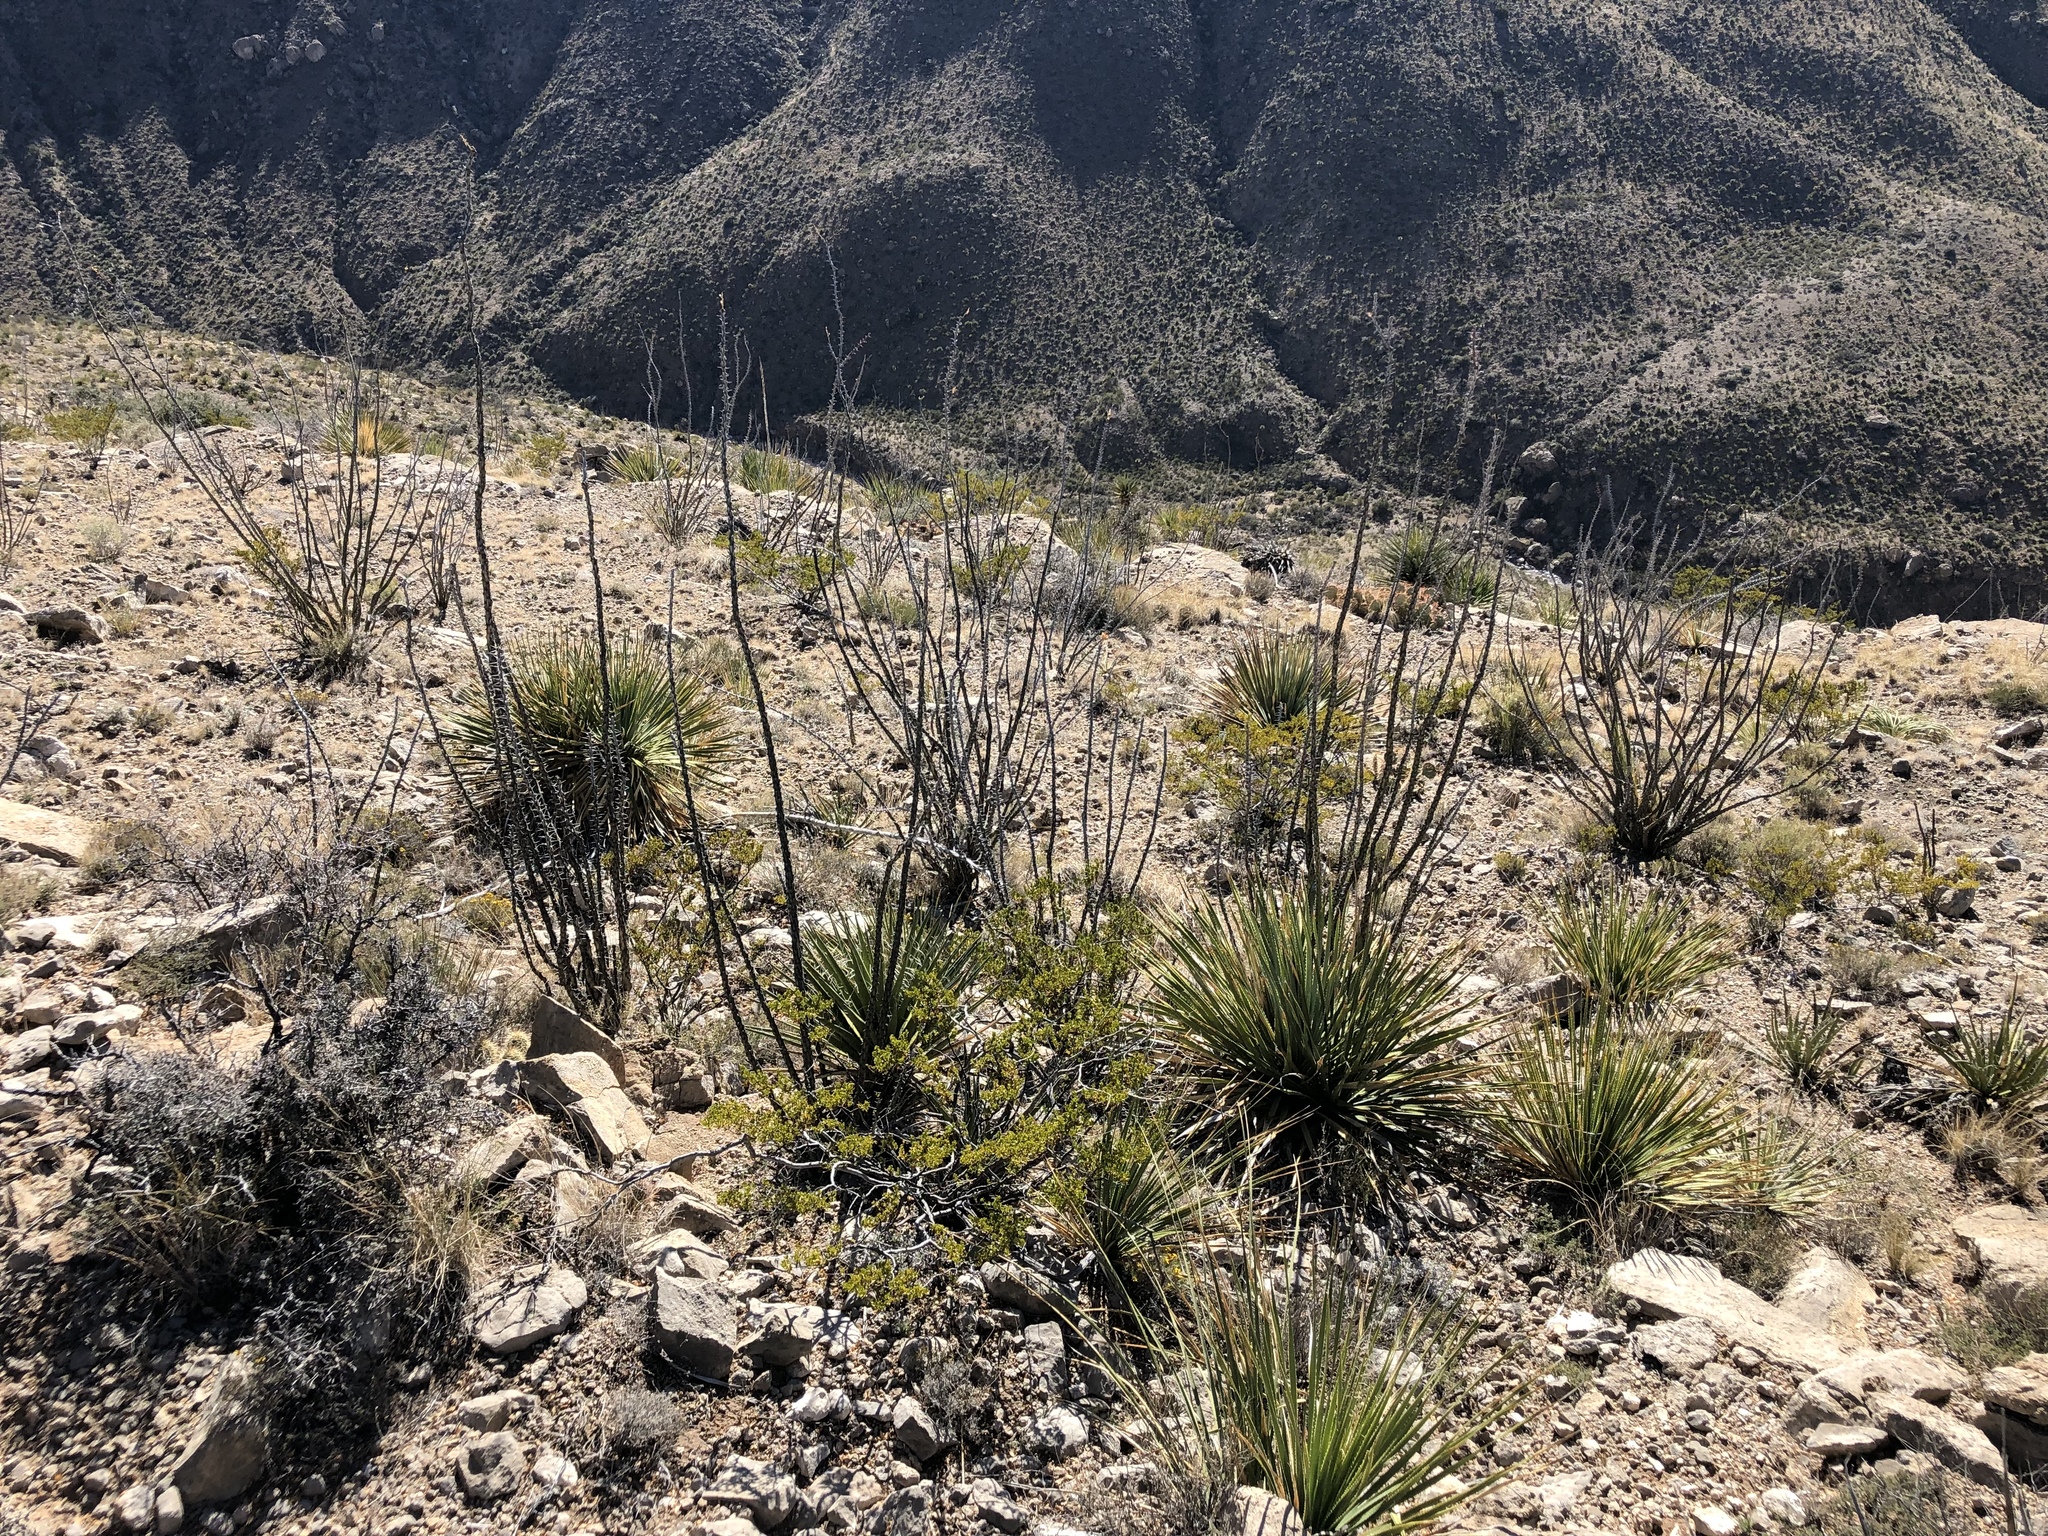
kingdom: Plantae
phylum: Tracheophyta
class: Magnoliopsida
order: Ericales
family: Fouquieriaceae
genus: Fouquieria
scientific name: Fouquieria splendens
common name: Vine-cactus
